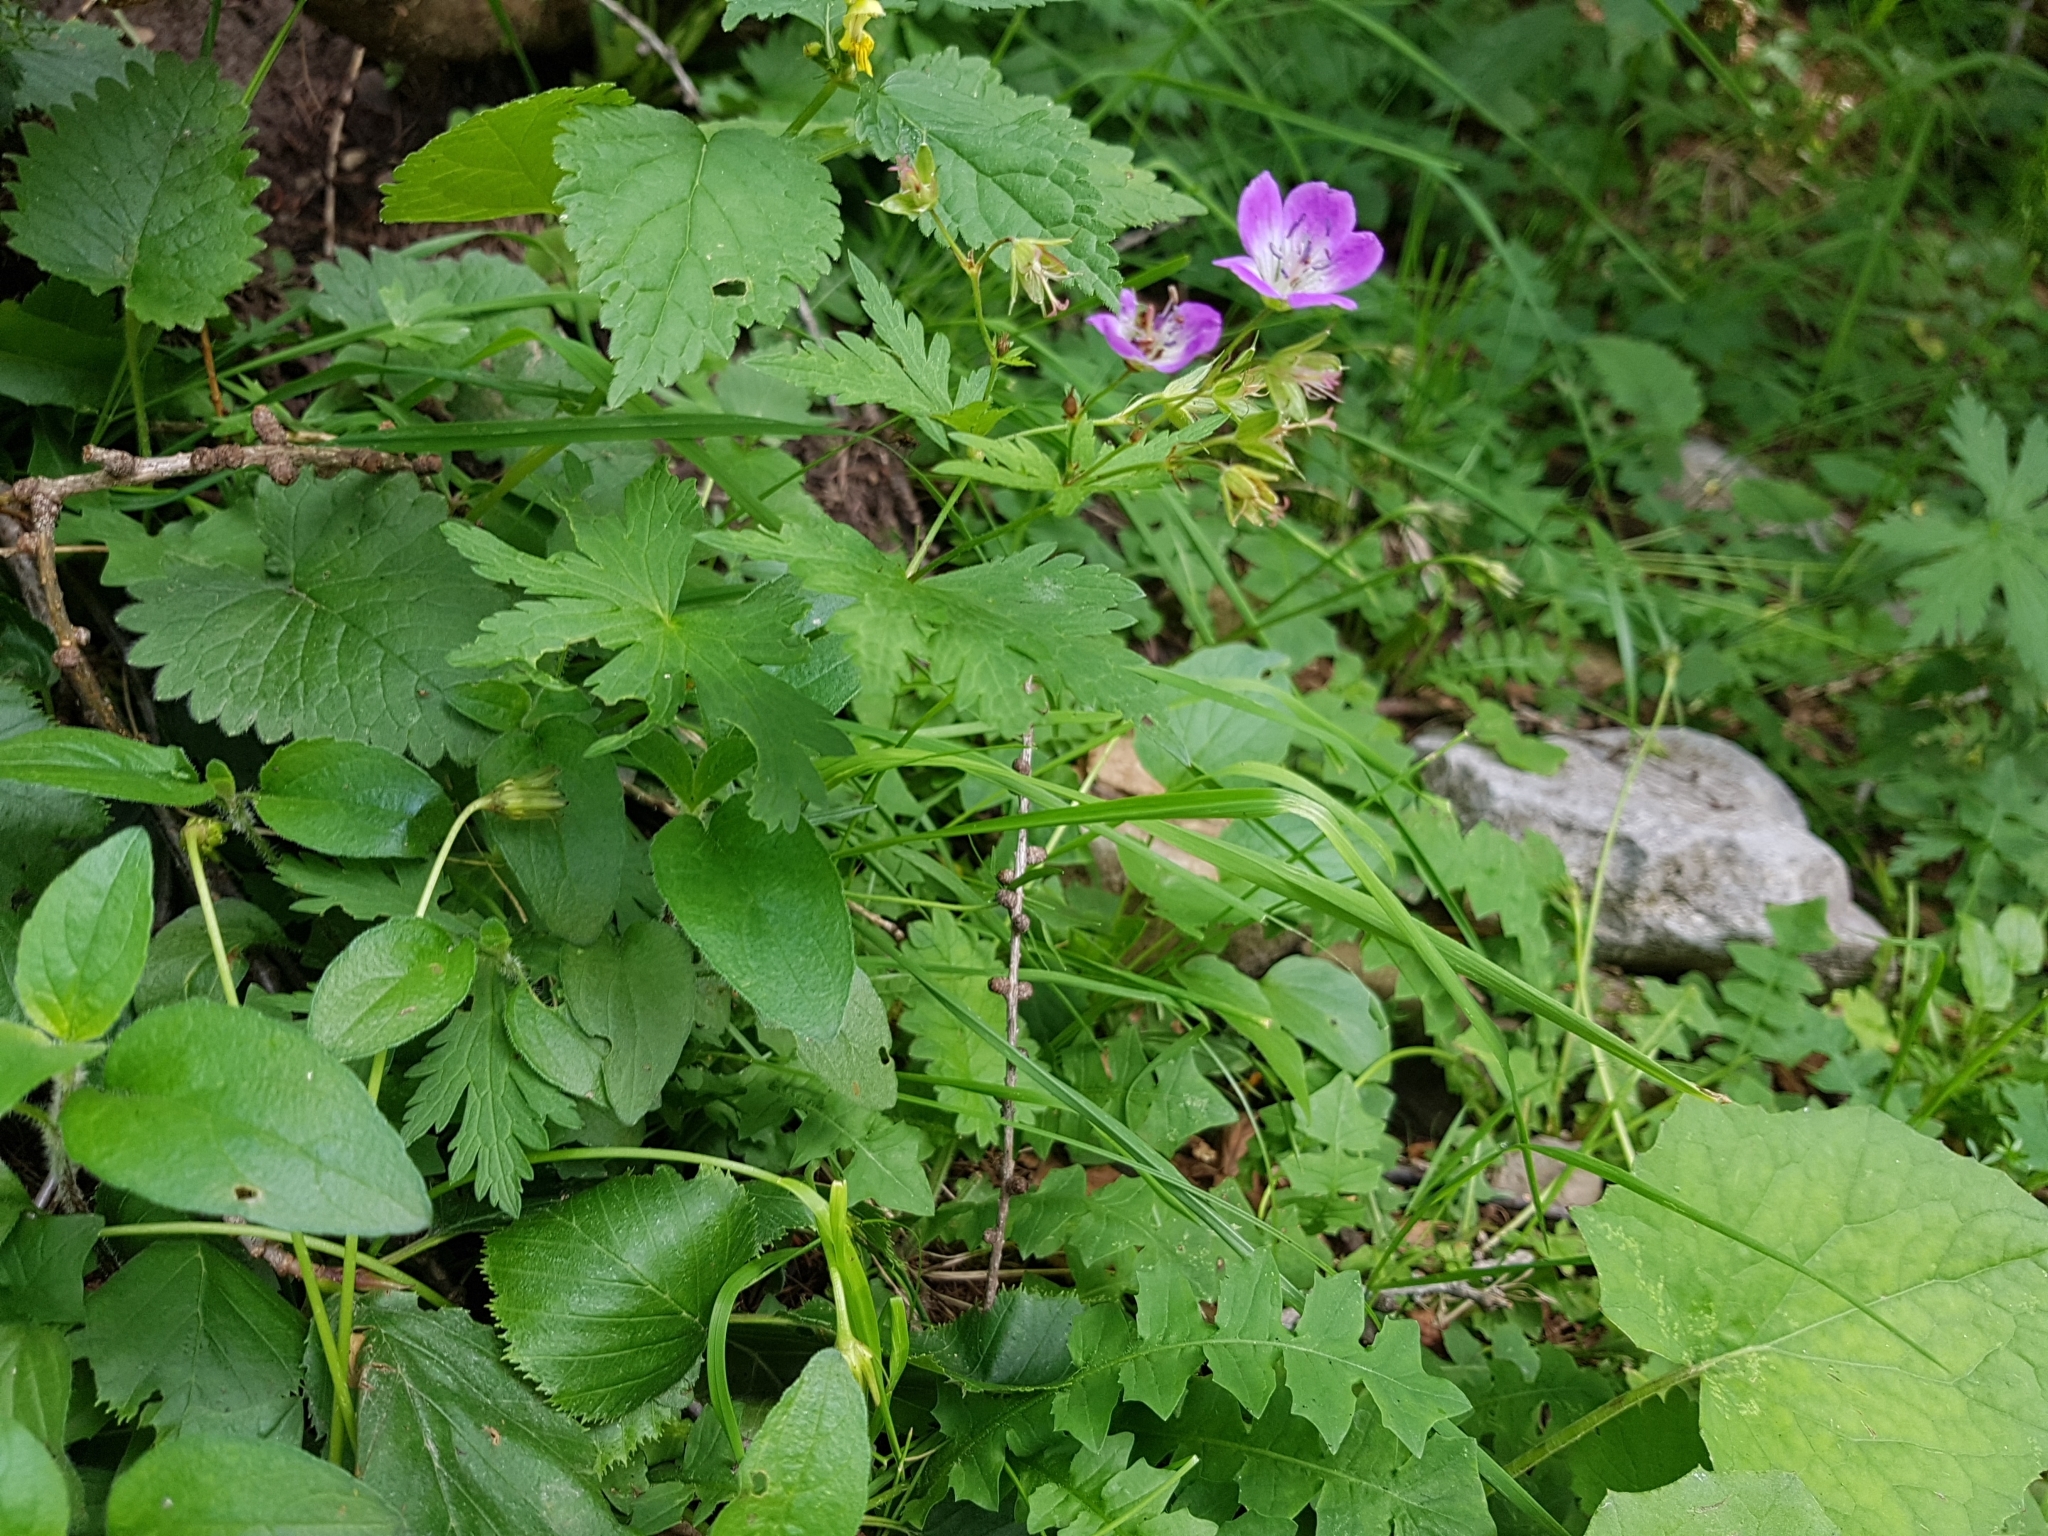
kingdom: Plantae
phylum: Tracheophyta
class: Magnoliopsida
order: Geraniales
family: Geraniaceae
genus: Geranium
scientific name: Geranium sylvaticum
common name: Wood crane's-bill
